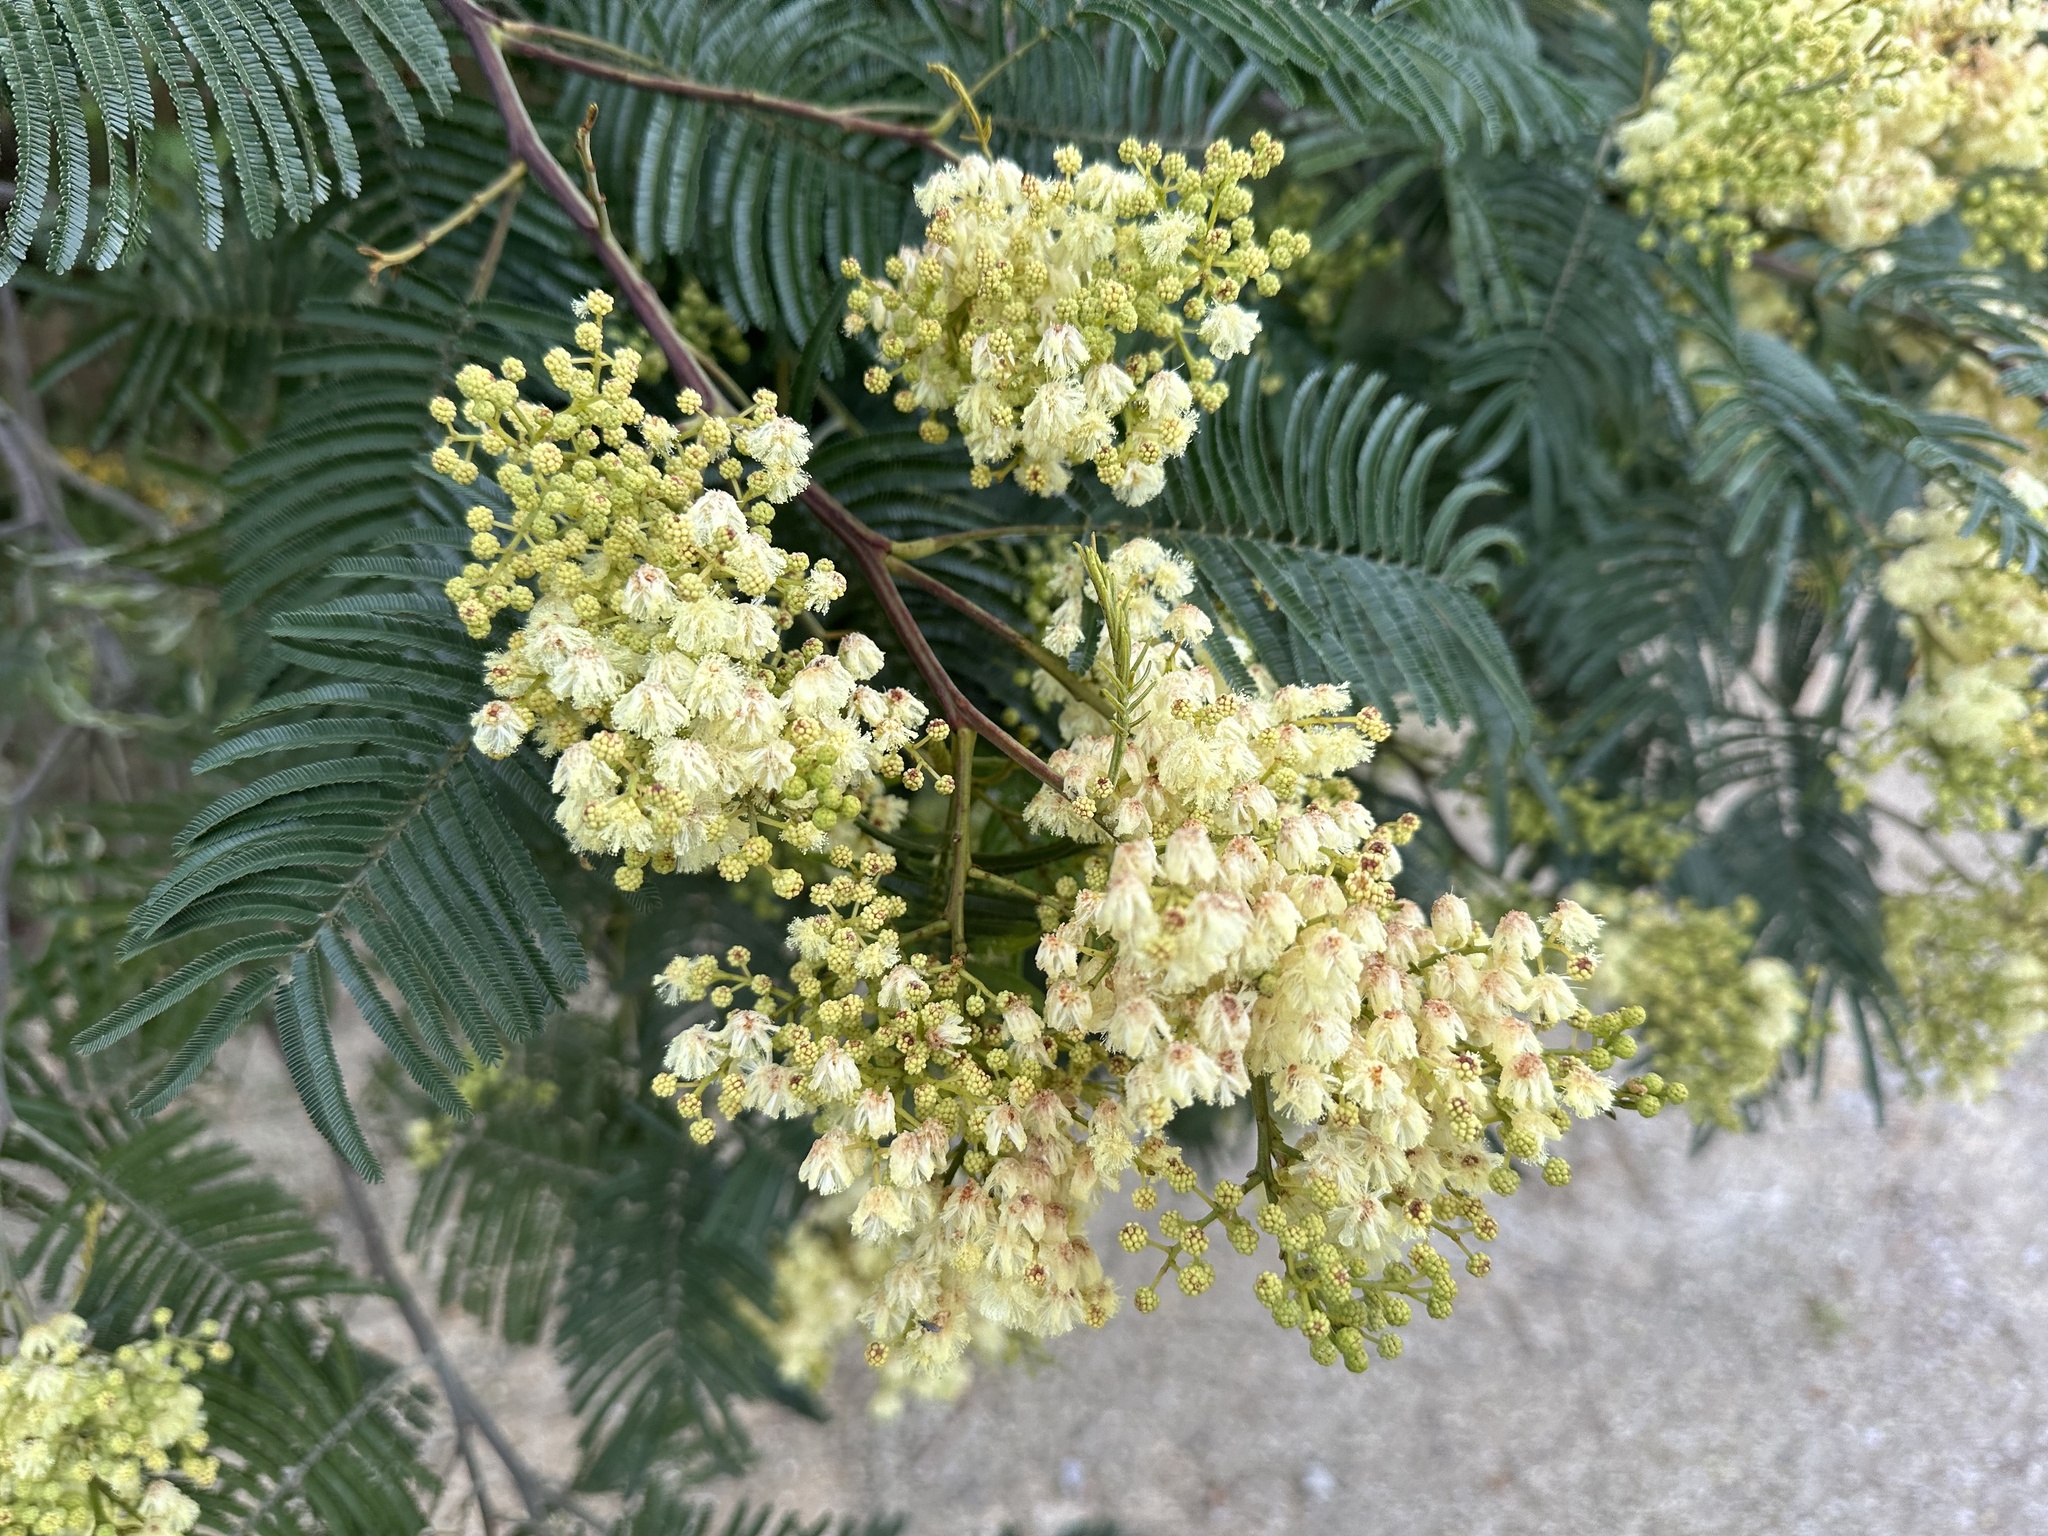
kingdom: Plantae
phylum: Tracheophyta
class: Magnoliopsida
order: Fabales
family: Fabaceae
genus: Acacia
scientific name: Acacia mearnsii
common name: Black wattle
